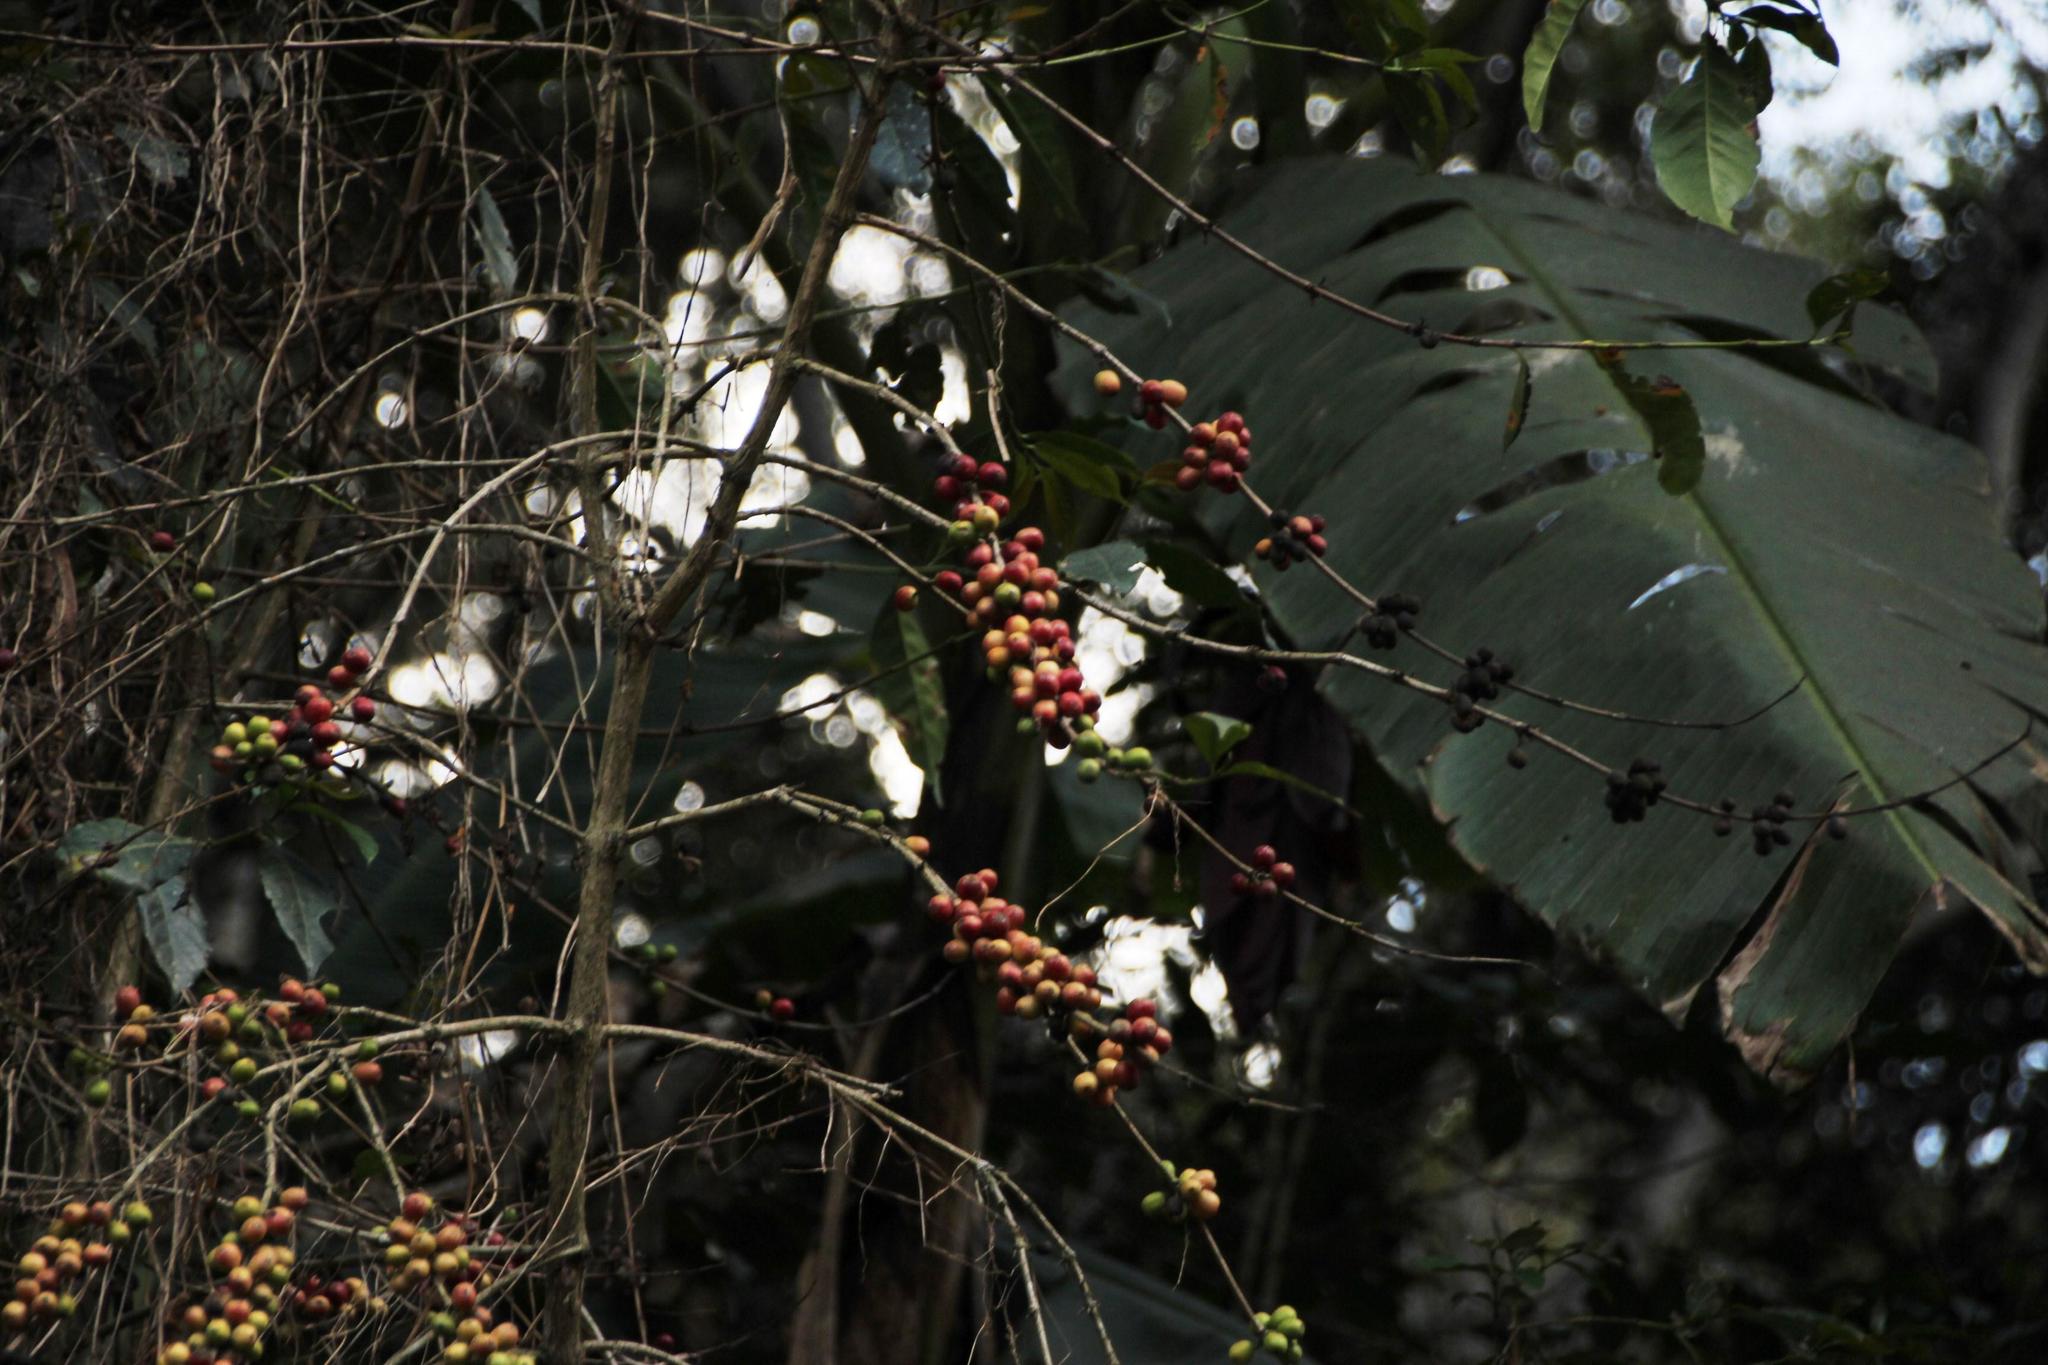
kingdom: Plantae
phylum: Tracheophyta
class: Magnoliopsida
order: Gentianales
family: Rubiaceae
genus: Coffea
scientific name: Coffea arabica
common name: Coffee
